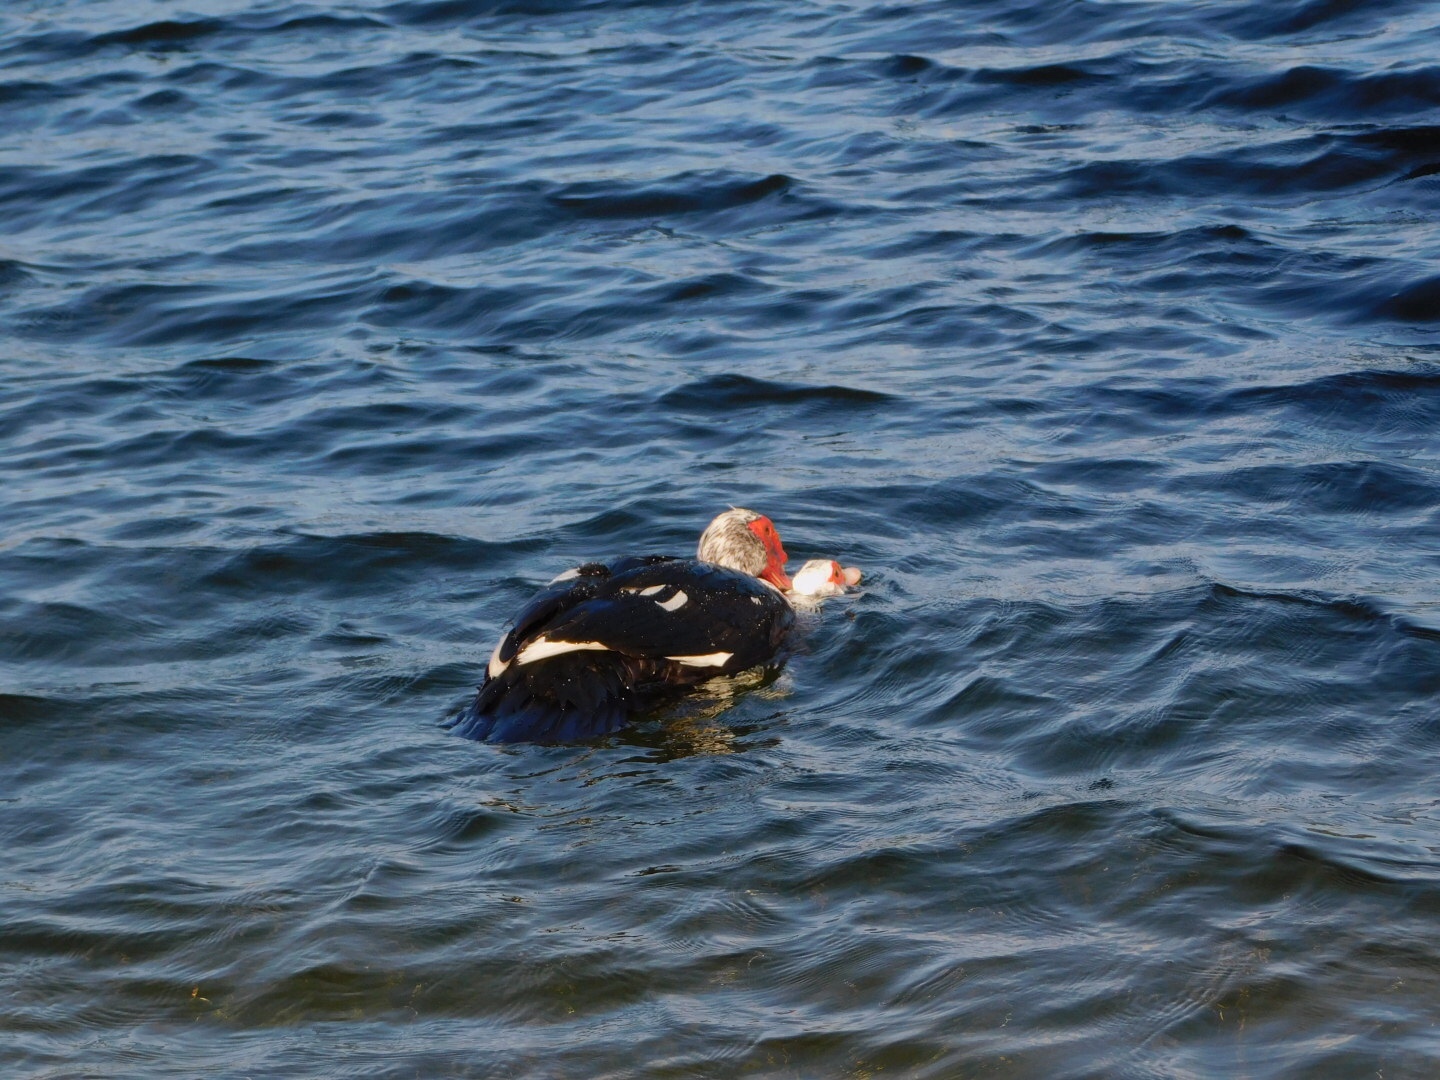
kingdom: Animalia
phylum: Chordata
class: Aves
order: Anseriformes
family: Anatidae
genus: Cairina
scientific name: Cairina moschata
